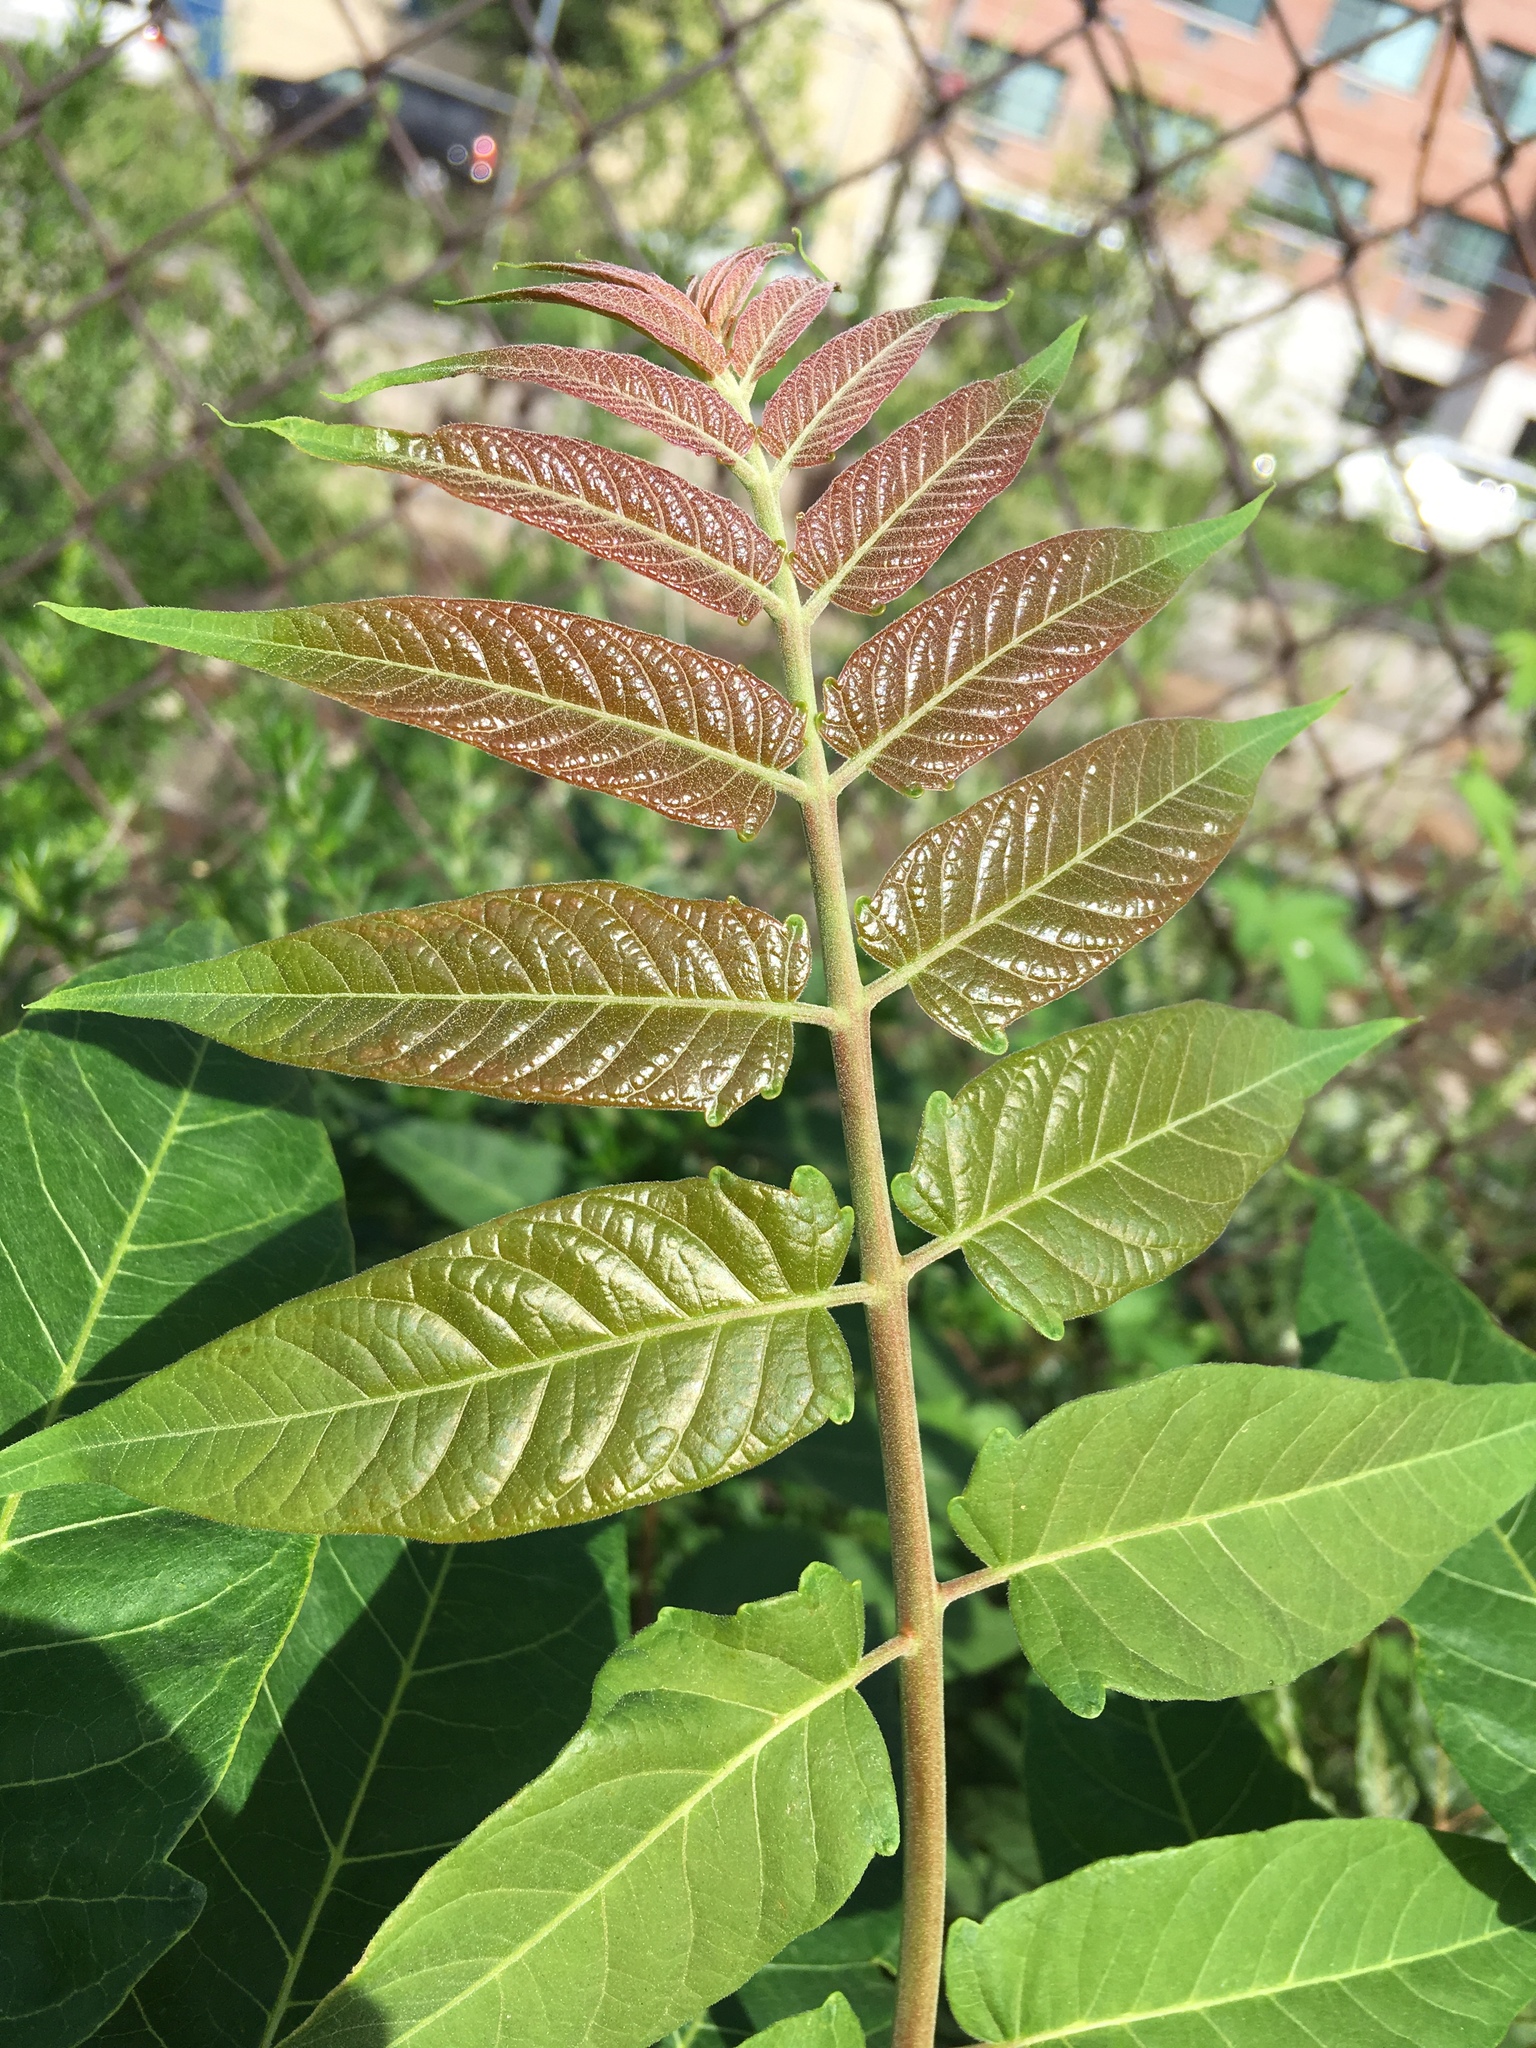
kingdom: Plantae
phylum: Tracheophyta
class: Magnoliopsida
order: Sapindales
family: Simaroubaceae
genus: Ailanthus
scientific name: Ailanthus altissima
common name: Tree-of-heaven
